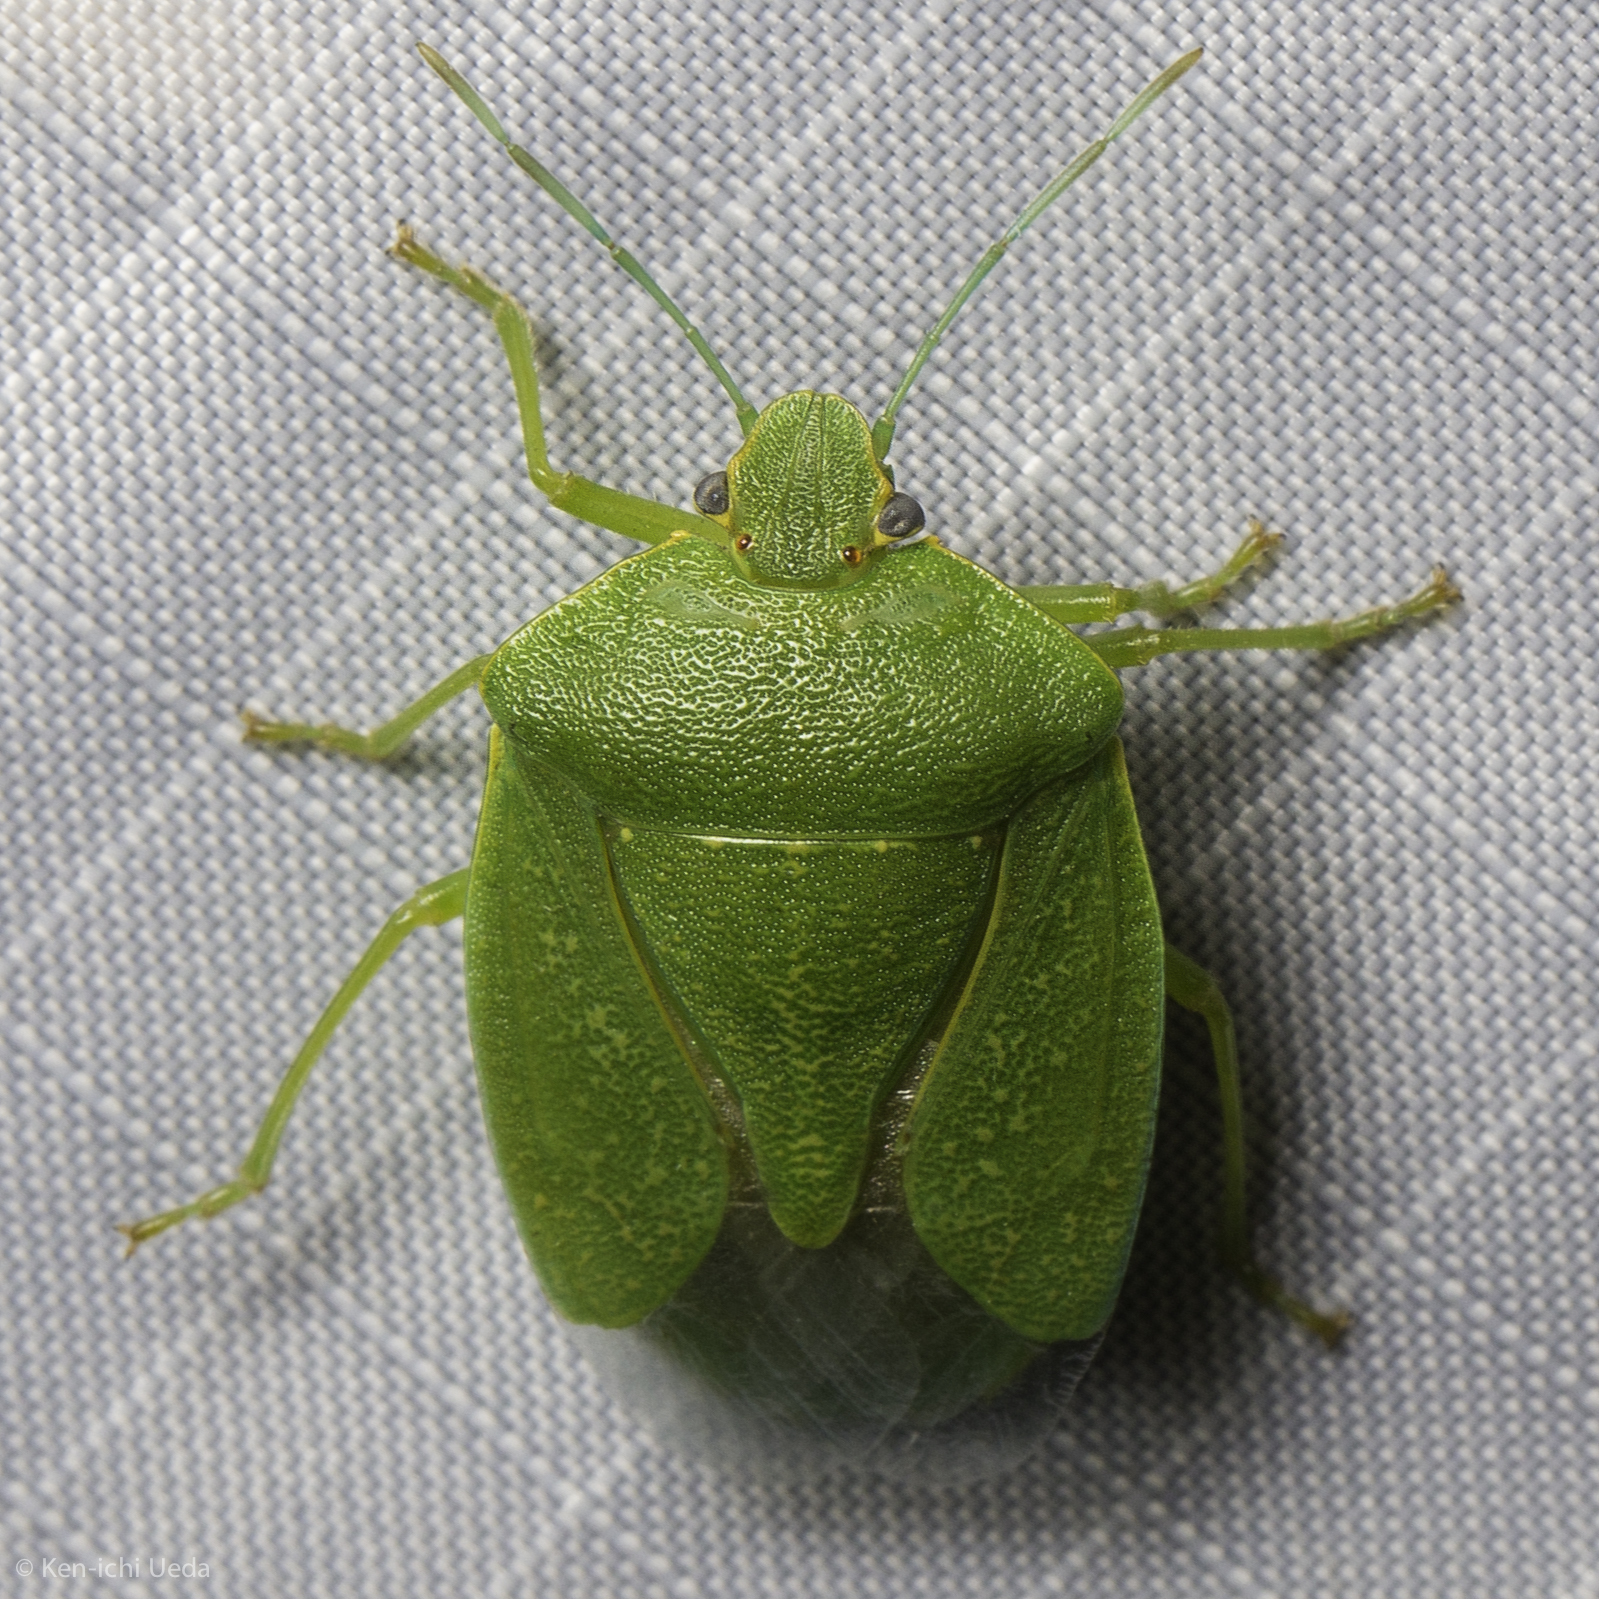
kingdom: Animalia
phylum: Arthropoda
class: Insecta
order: Hemiptera
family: Pentatomidae
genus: Chinavia
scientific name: Chinavia hilaris
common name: Green stink bug
